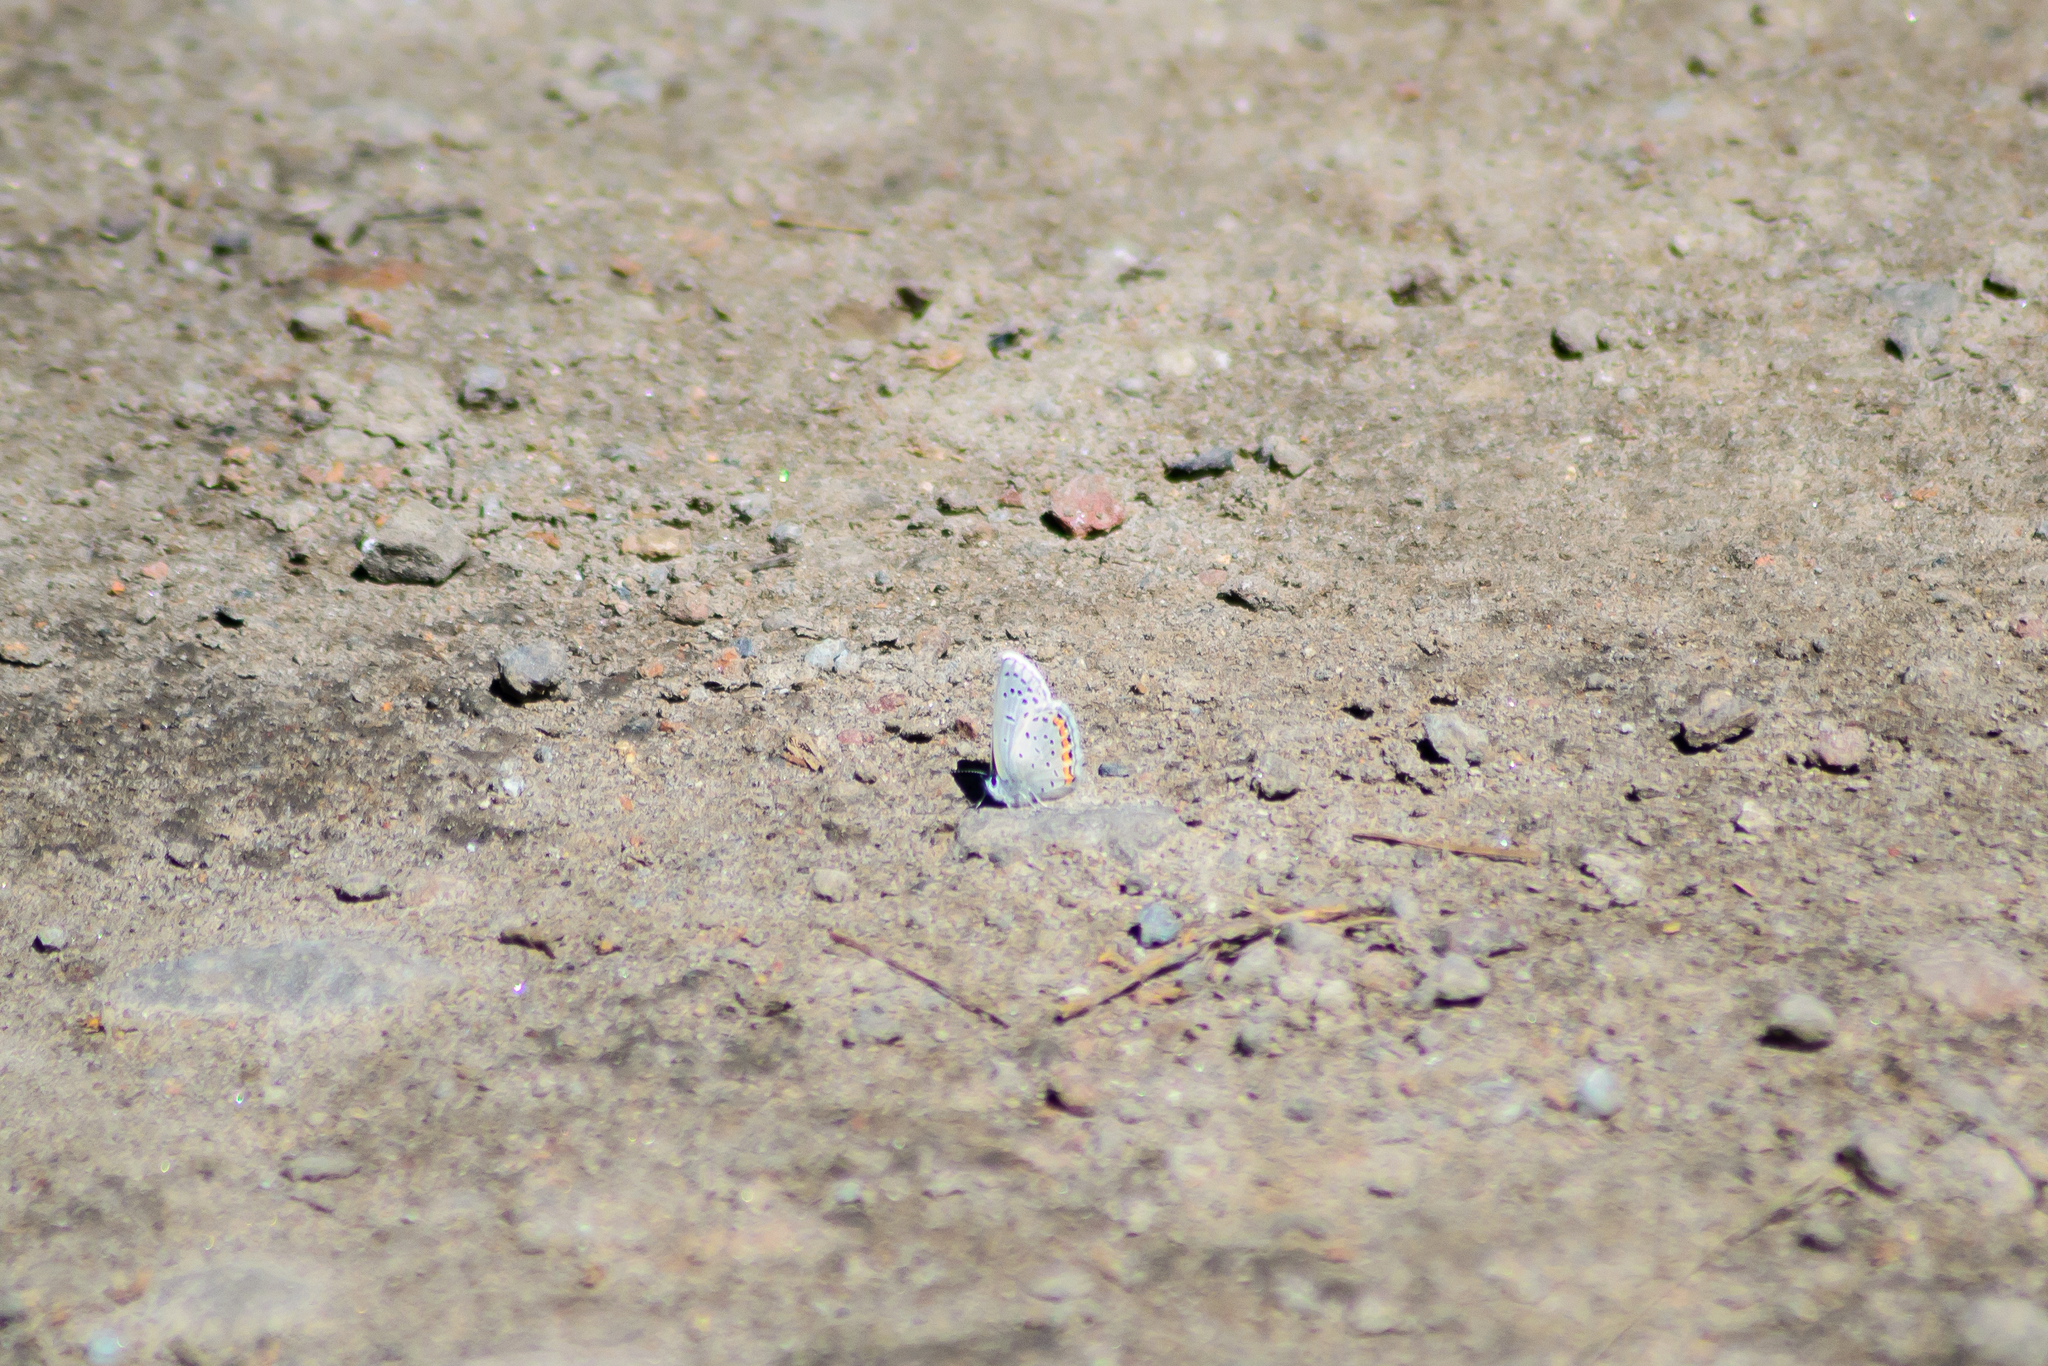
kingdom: Animalia
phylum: Arthropoda
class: Insecta
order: Lepidoptera
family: Lycaenidae
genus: Icaricia
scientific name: Icaricia lupini
